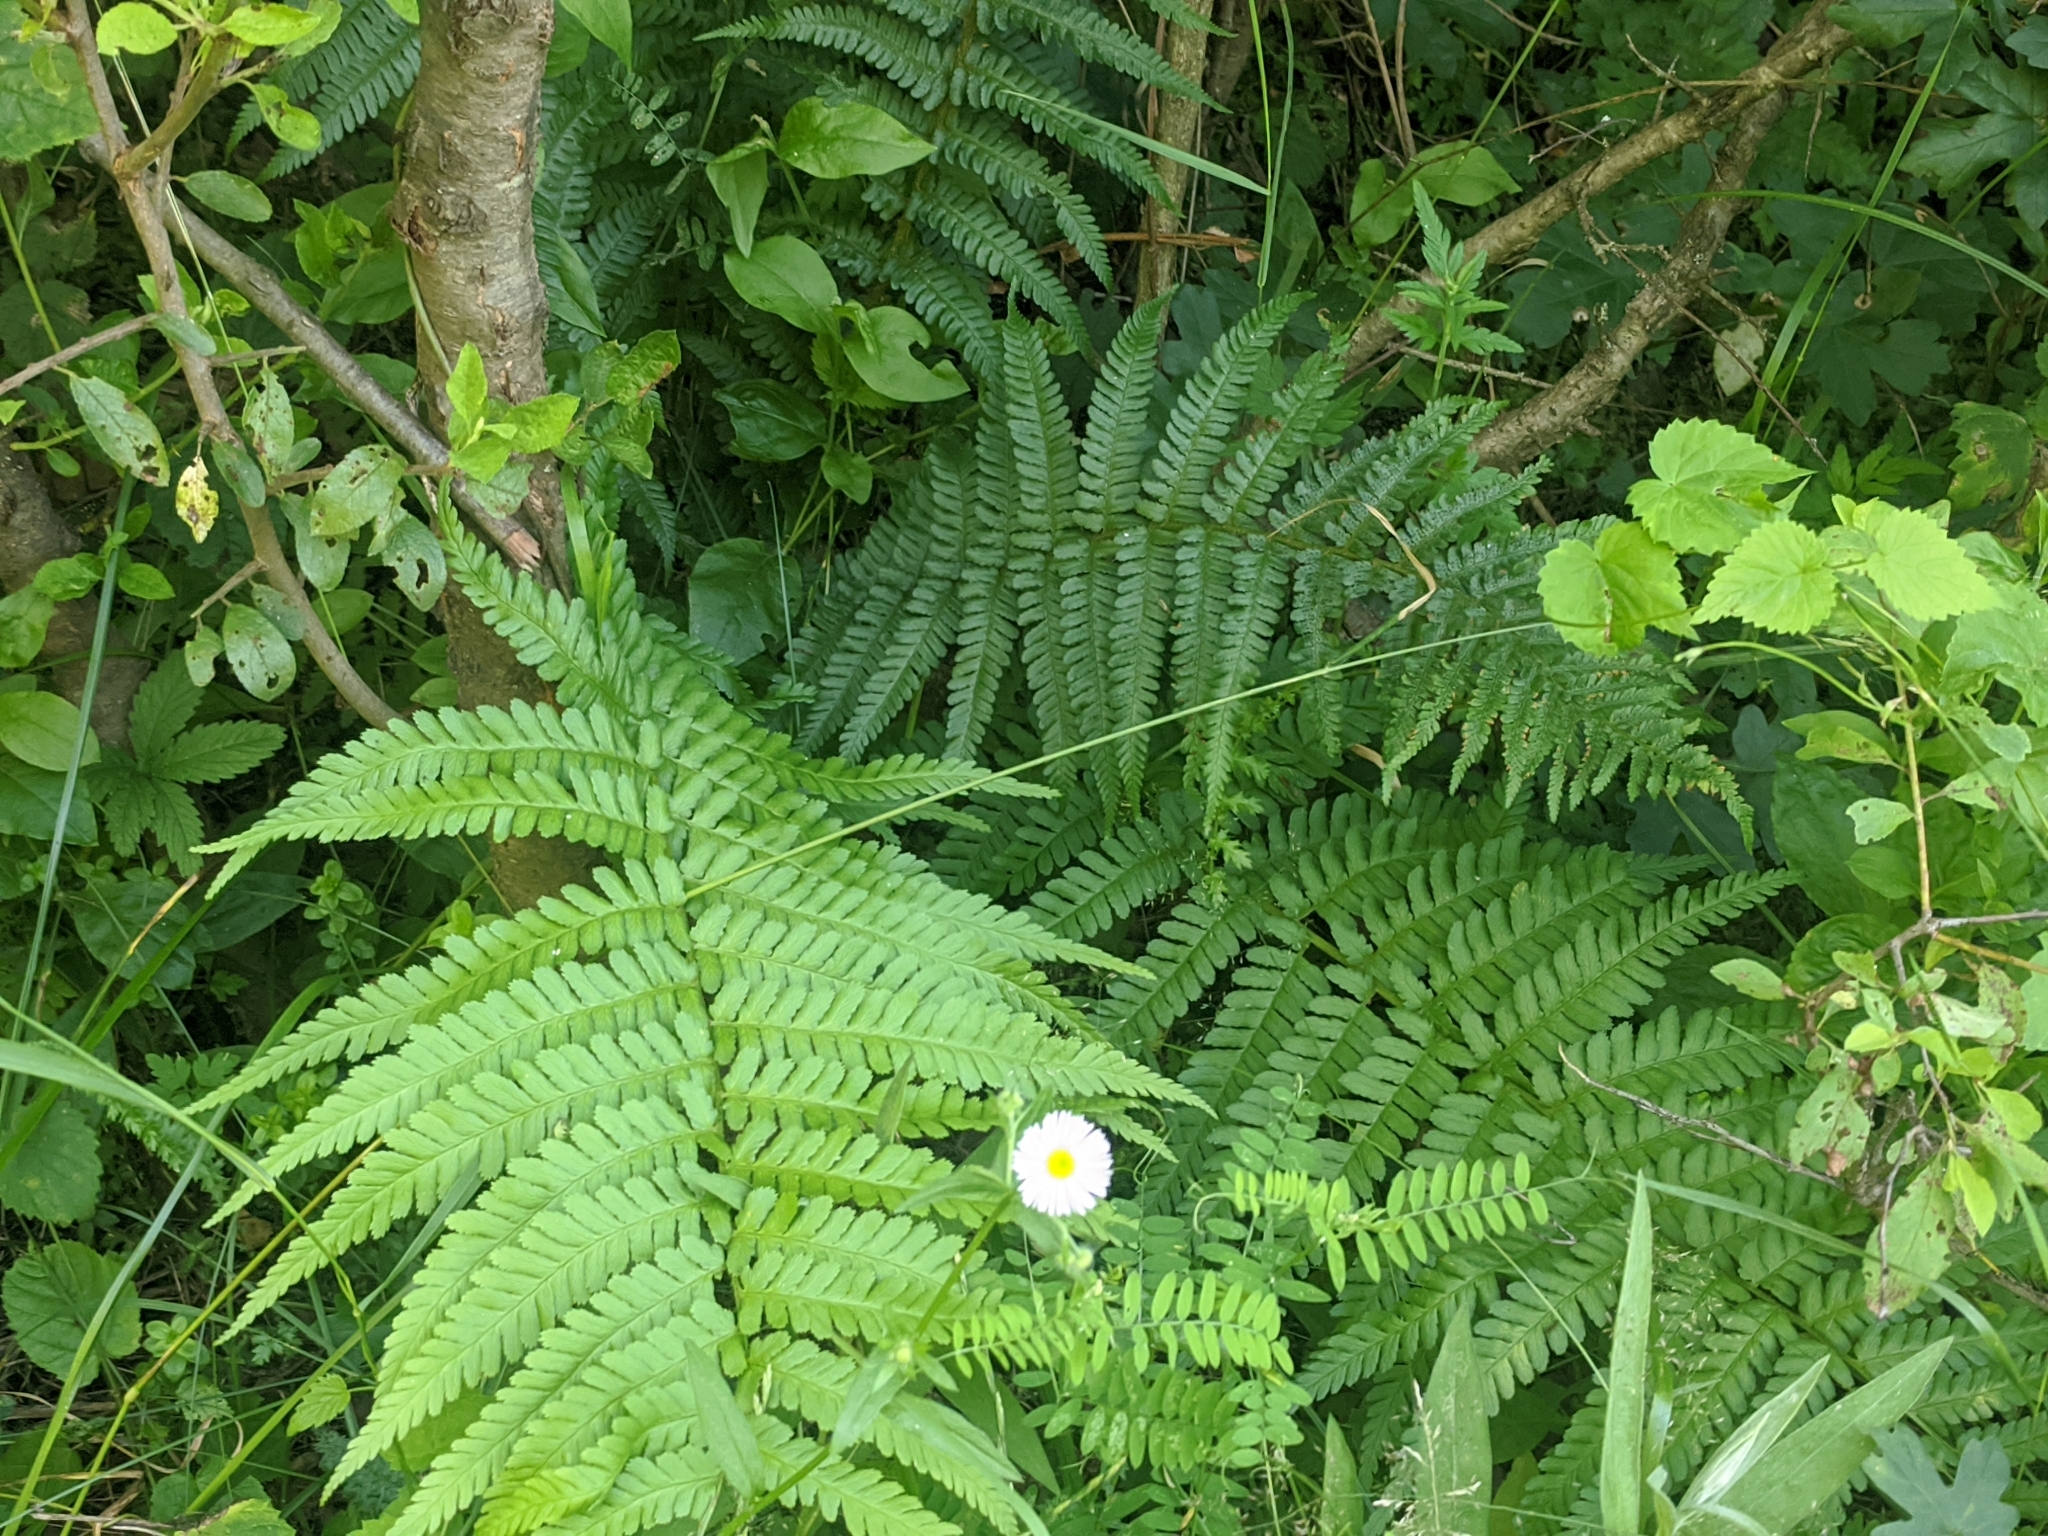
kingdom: Plantae
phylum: Tracheophyta
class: Polypodiopsida
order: Polypodiales
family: Dryopteridaceae
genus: Dryopteris
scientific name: Dryopteris filix-mas
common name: Male fern
